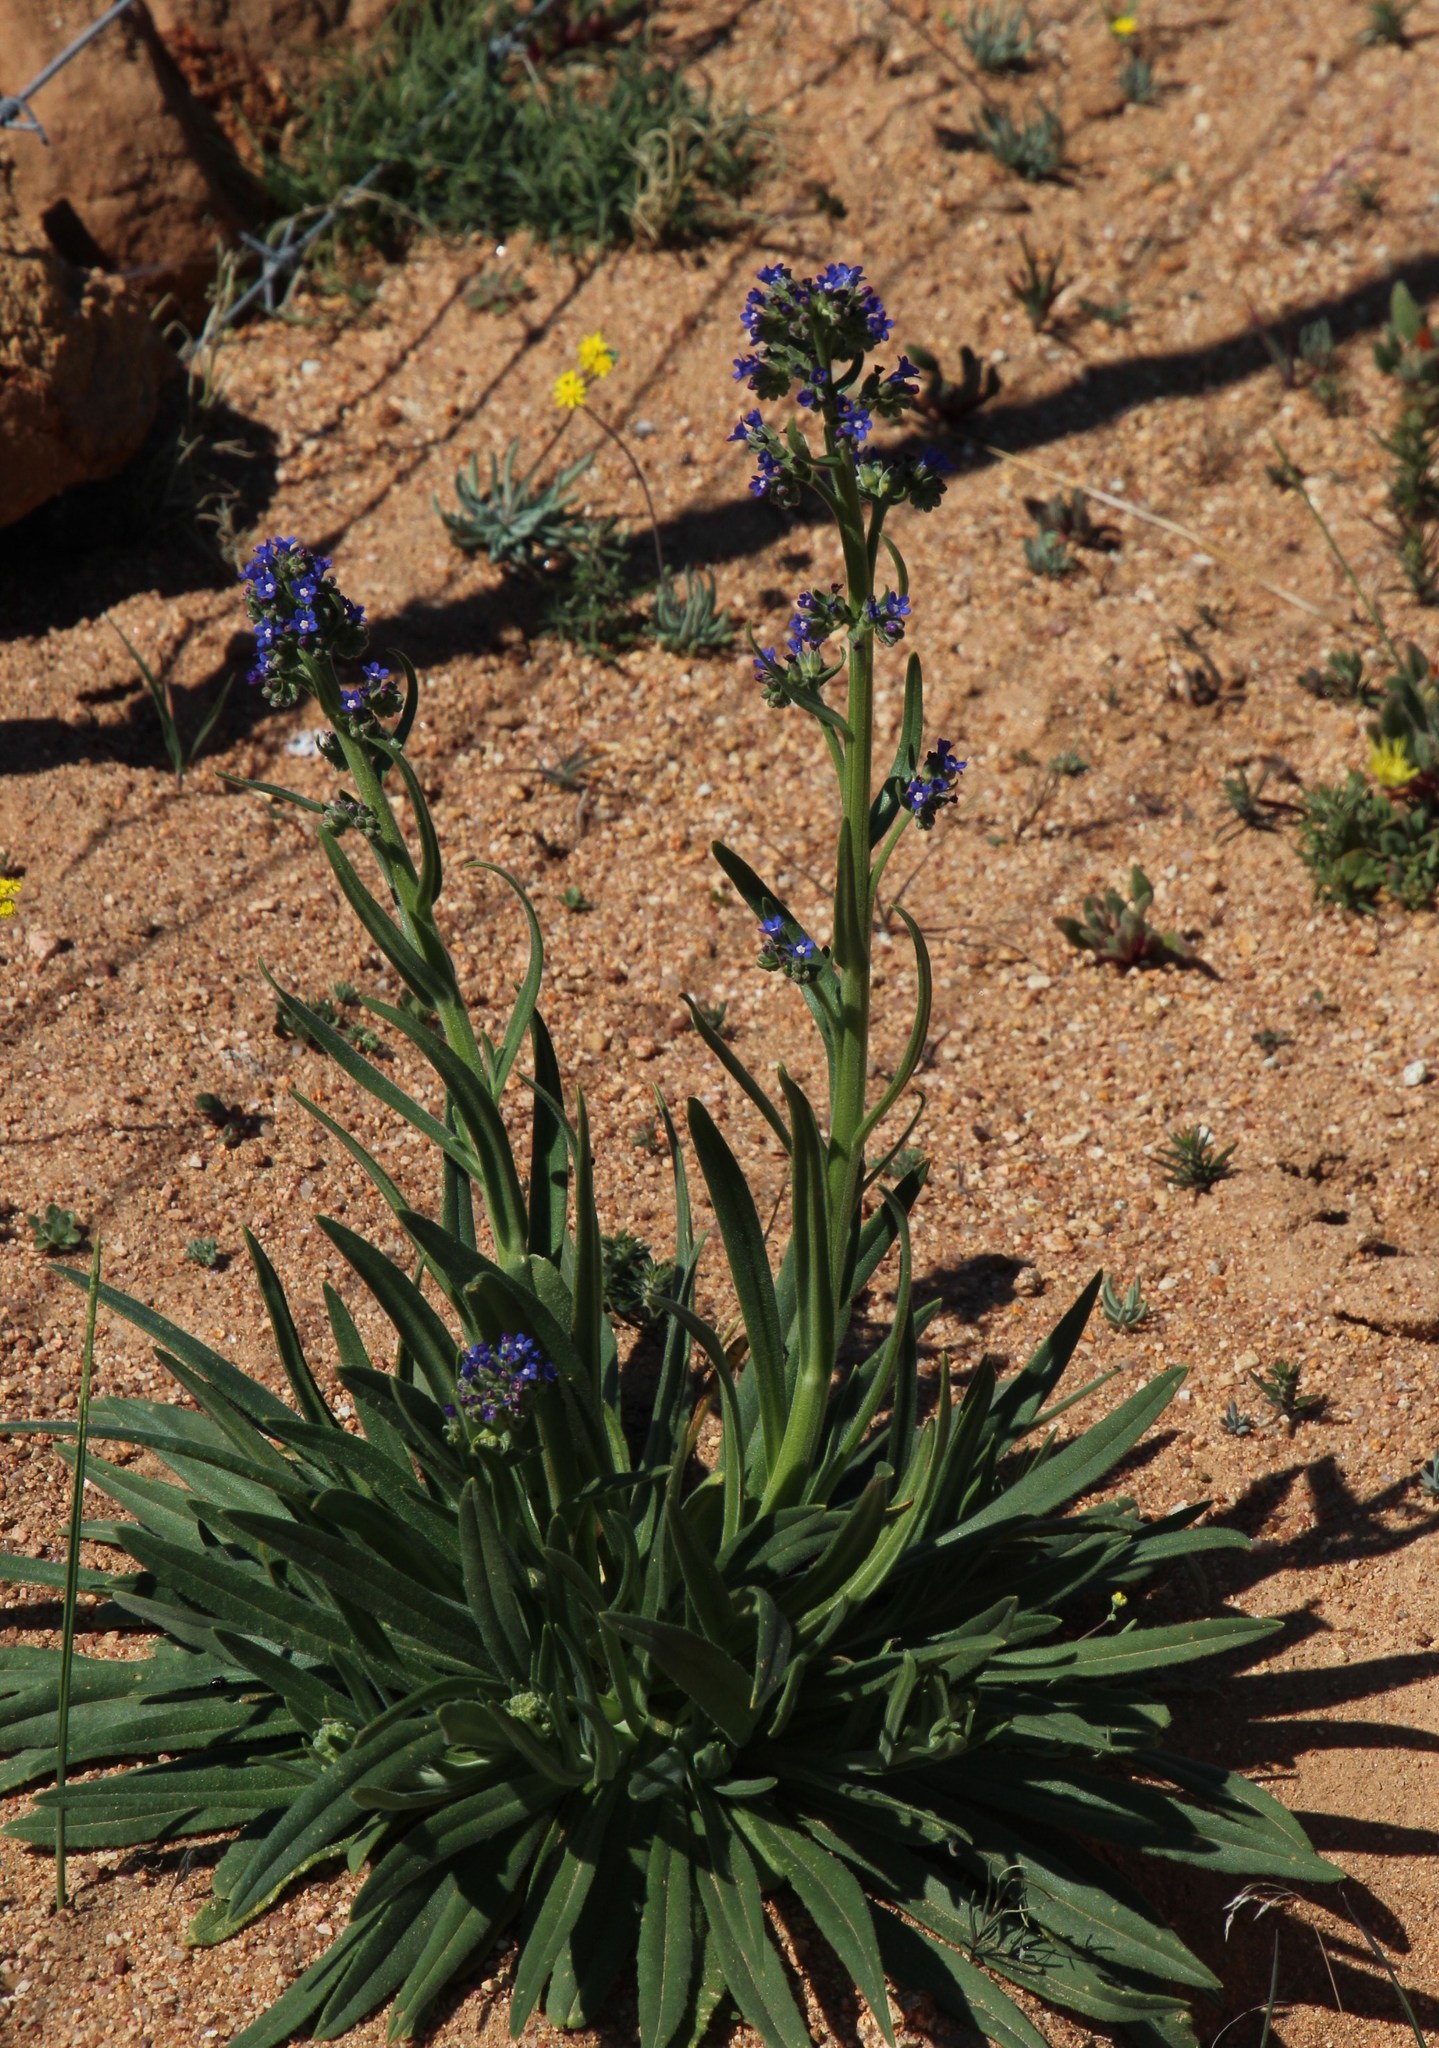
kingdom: Plantae
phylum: Tracheophyta
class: Magnoliopsida
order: Boraginales
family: Boraginaceae
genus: Anchusa
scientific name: Anchusa capensis
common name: Cape bugloss
